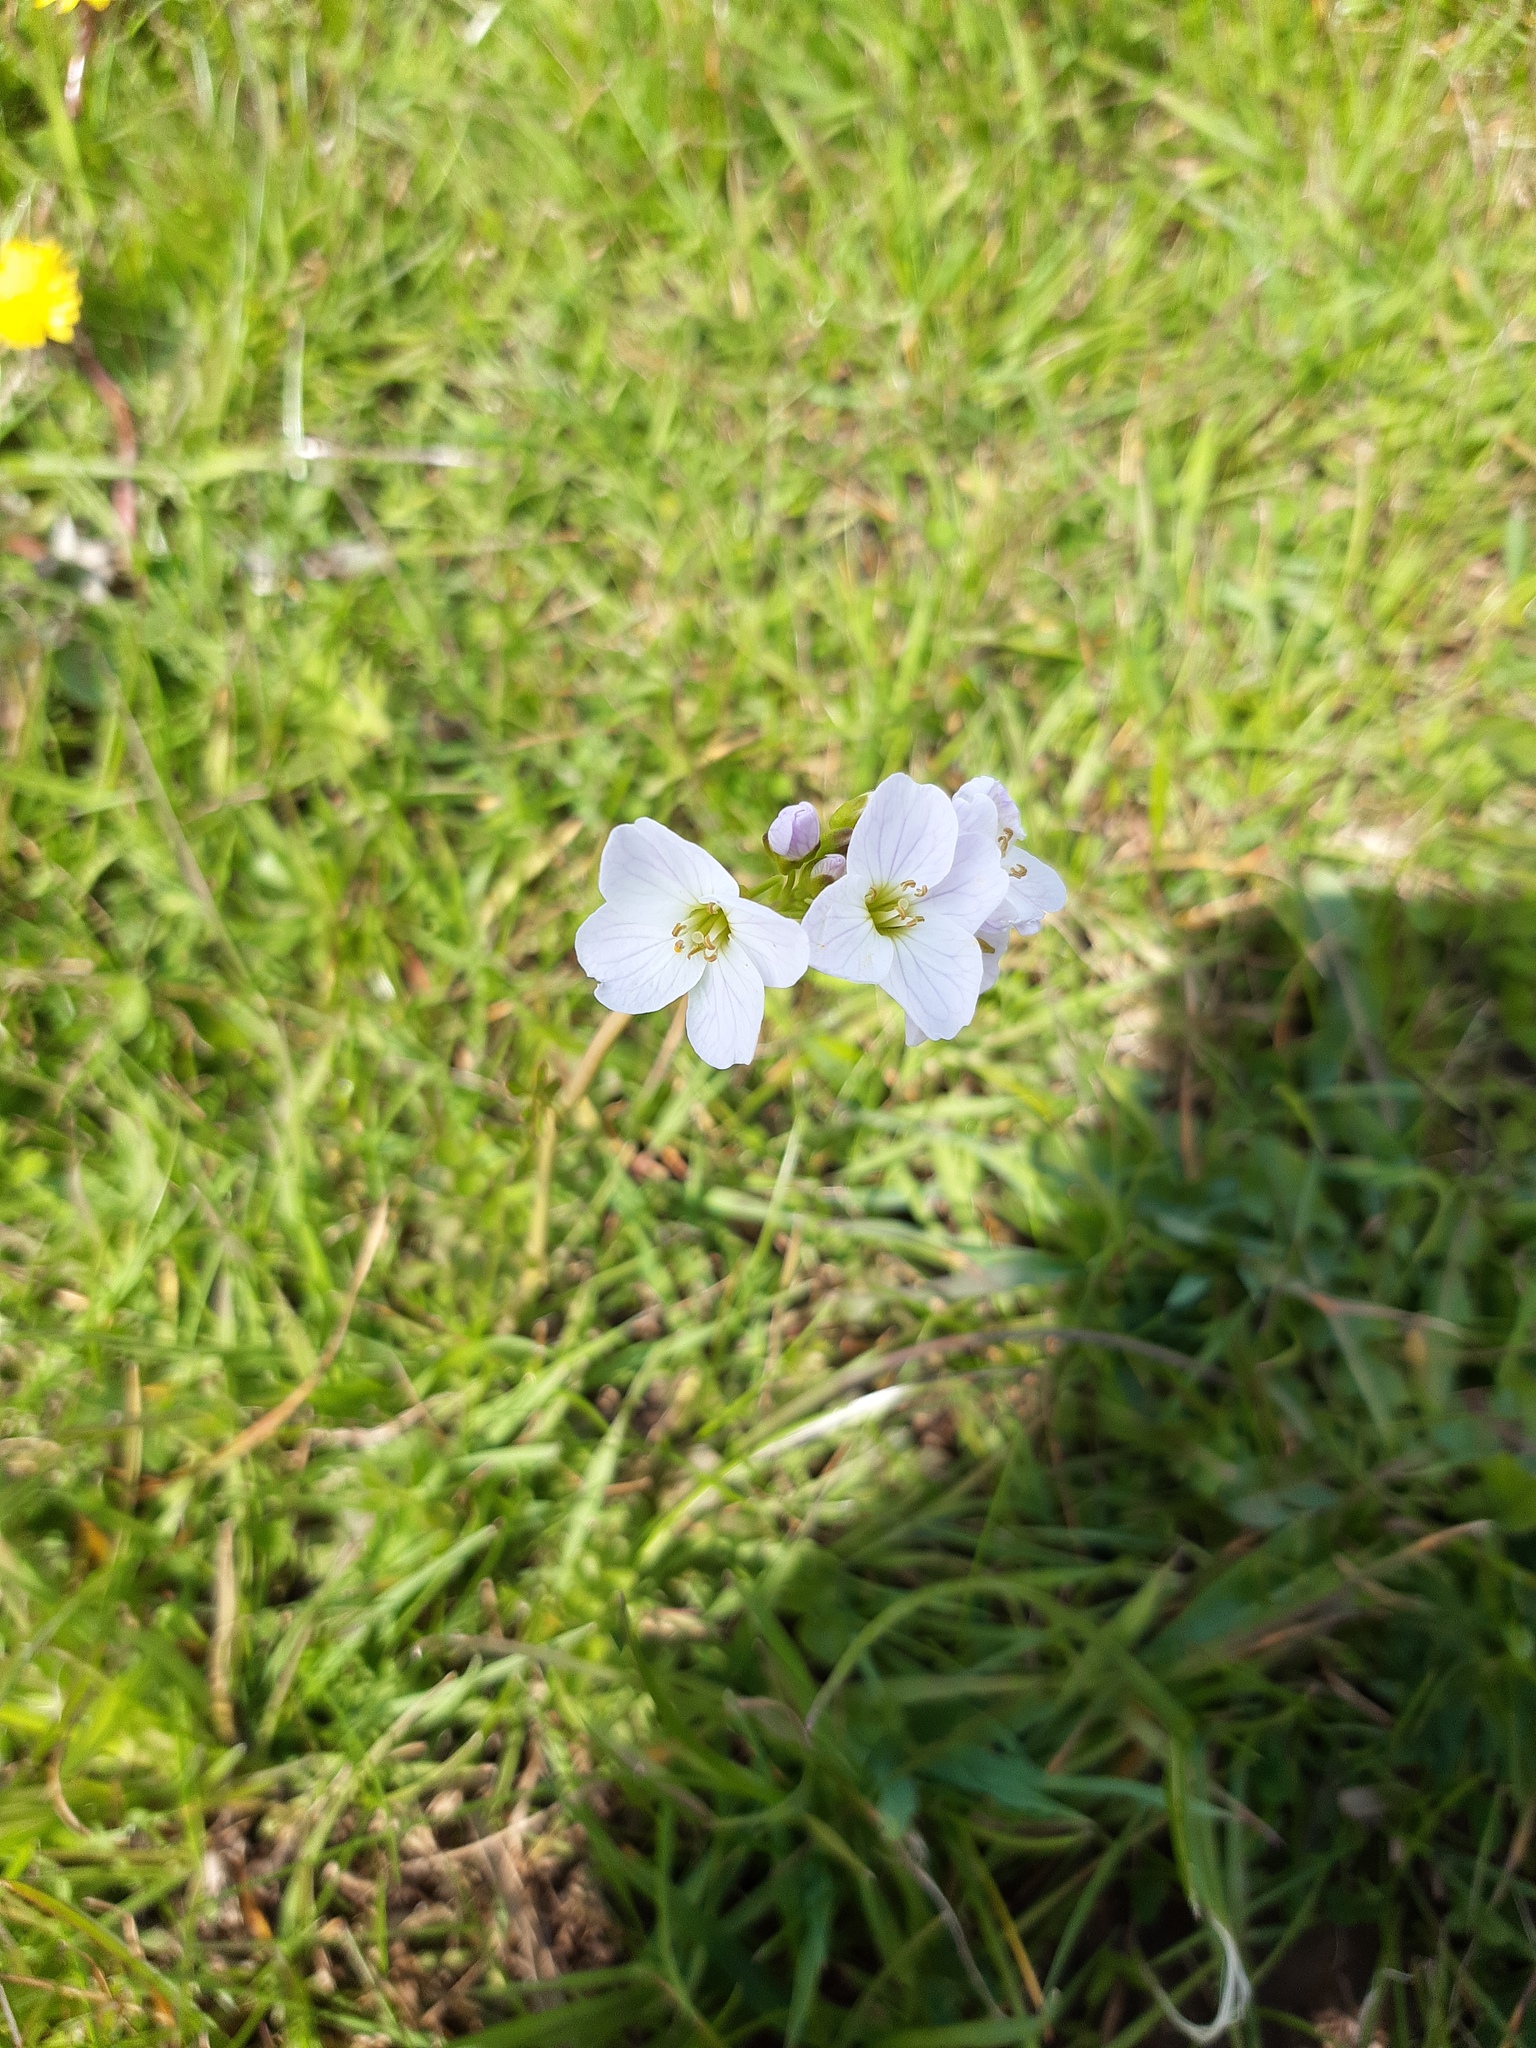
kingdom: Plantae
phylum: Tracheophyta
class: Magnoliopsida
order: Brassicales
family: Brassicaceae
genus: Cardamine
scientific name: Cardamine pratensis
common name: Cuckoo flower
